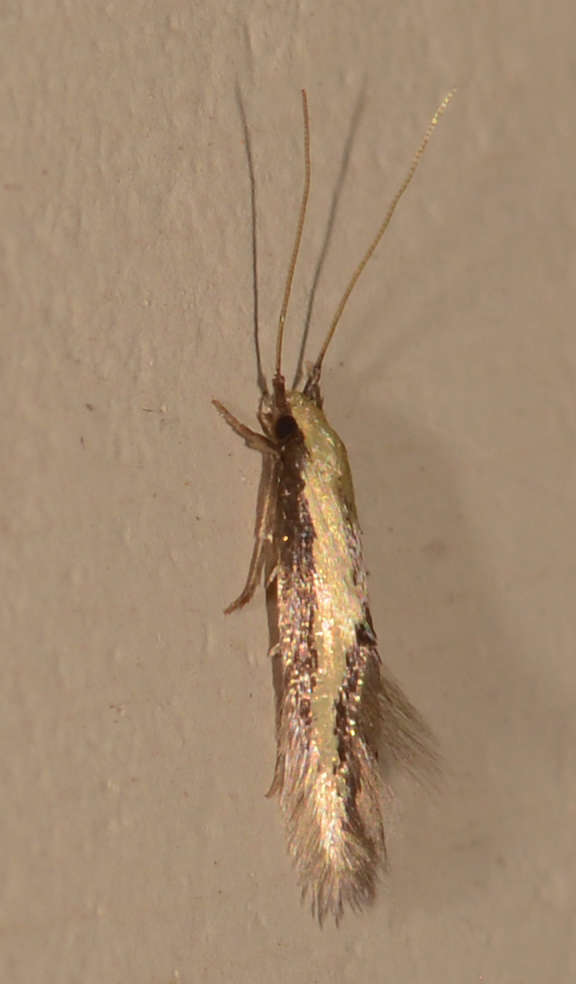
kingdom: Animalia
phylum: Arthropoda
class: Insecta
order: Lepidoptera
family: Tineidae
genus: Opogona
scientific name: Opogona stenocraspeda
